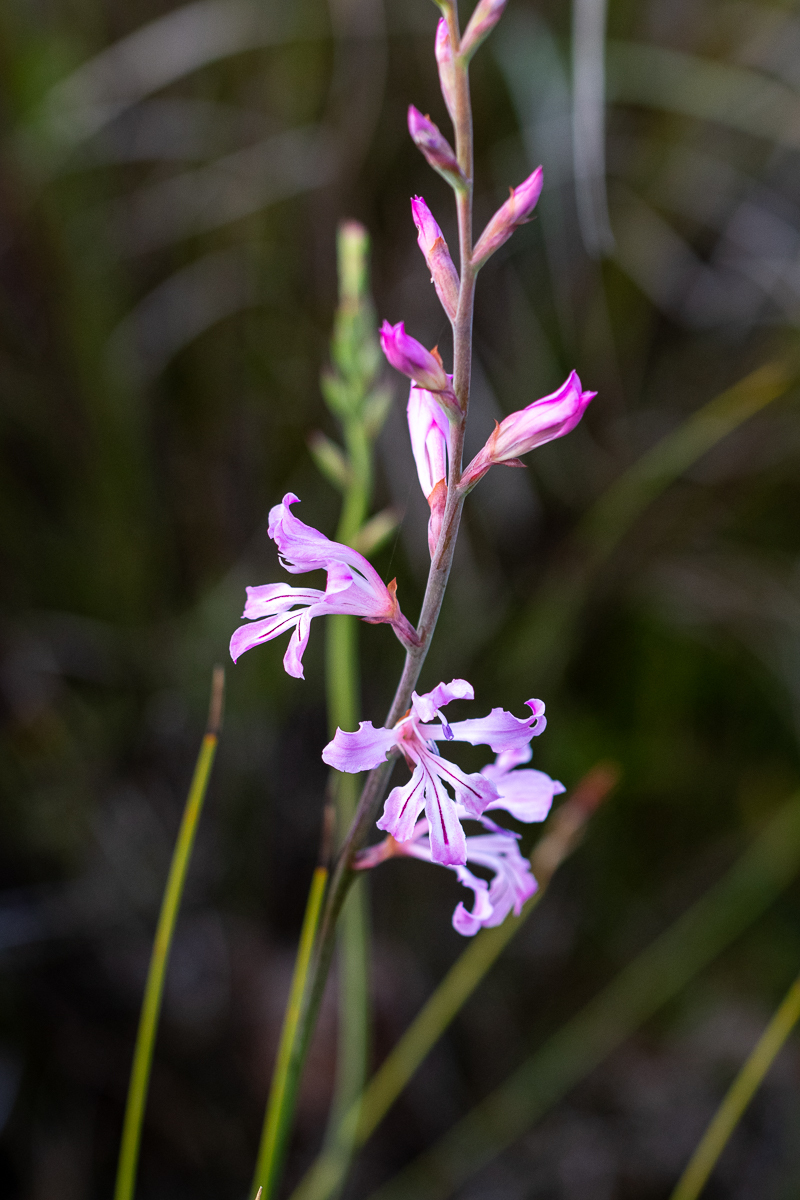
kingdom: Plantae
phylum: Tracheophyta
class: Liliopsida
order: Asparagales
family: Iridaceae
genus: Tritoniopsis
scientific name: Tritoniopsis lata
